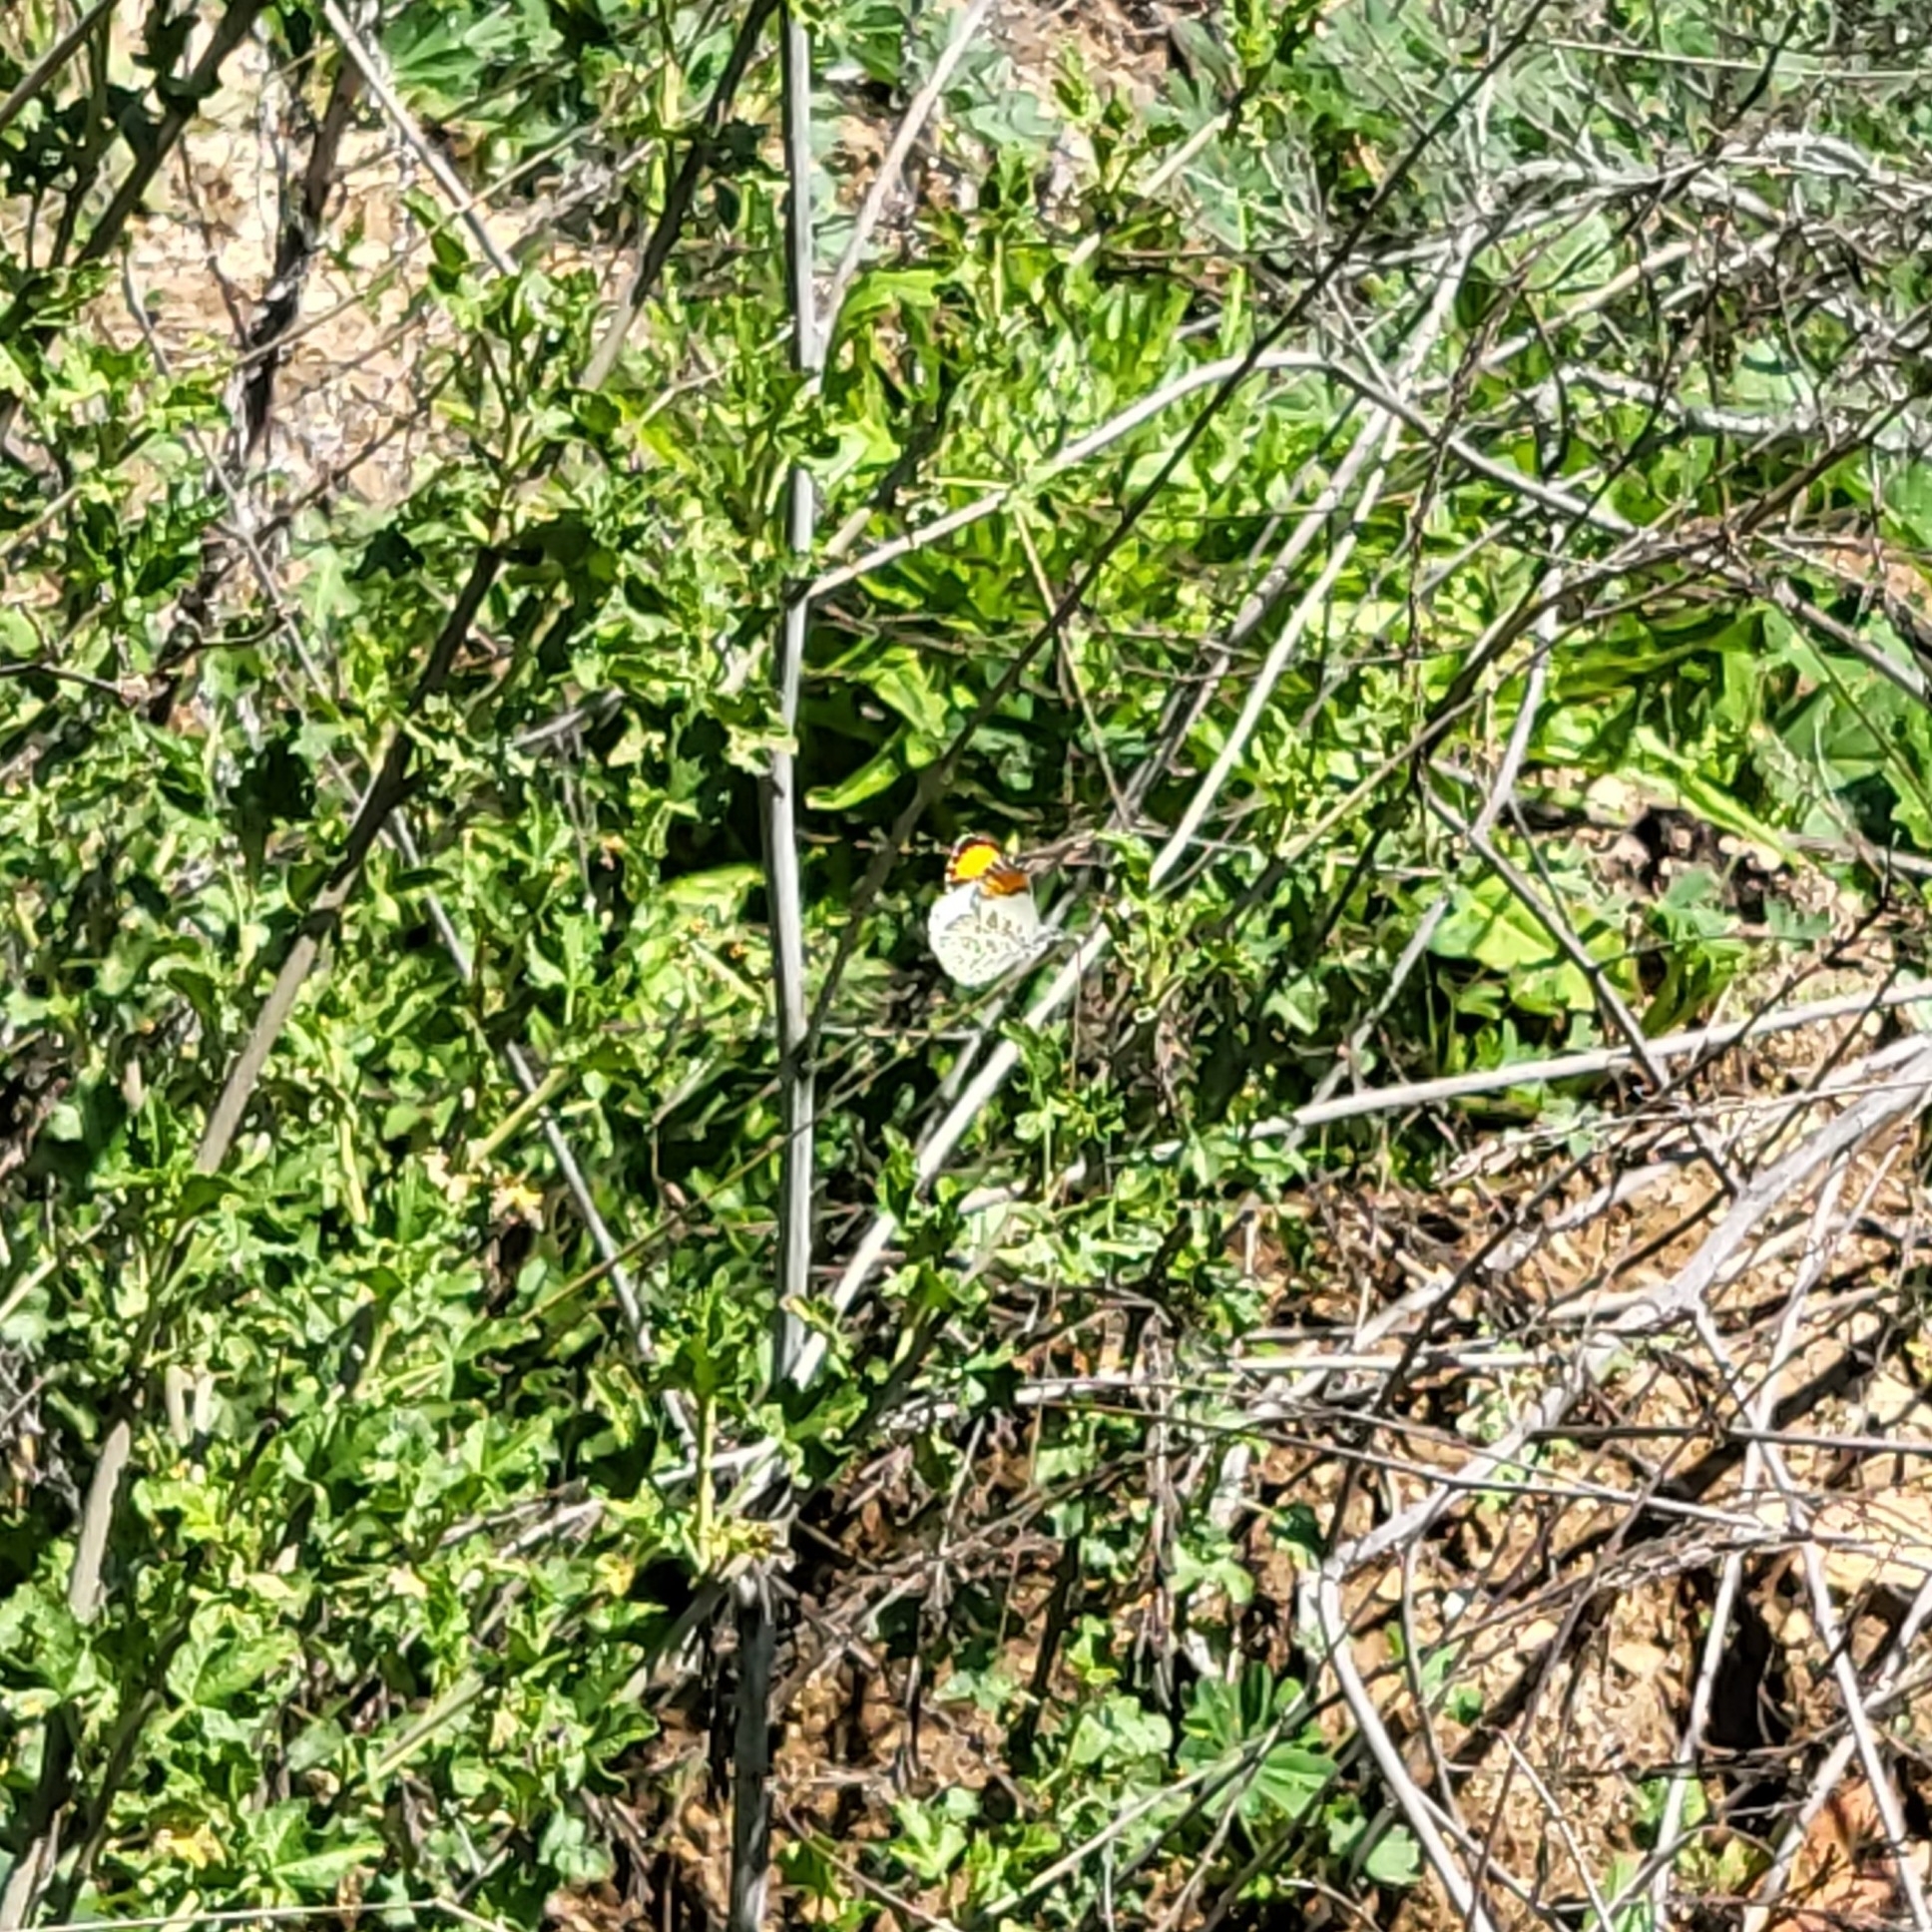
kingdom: Animalia
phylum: Arthropoda
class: Insecta
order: Lepidoptera
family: Pieridae
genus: Anthocharis
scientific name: Anthocharis sara
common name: Sara's orangetip
